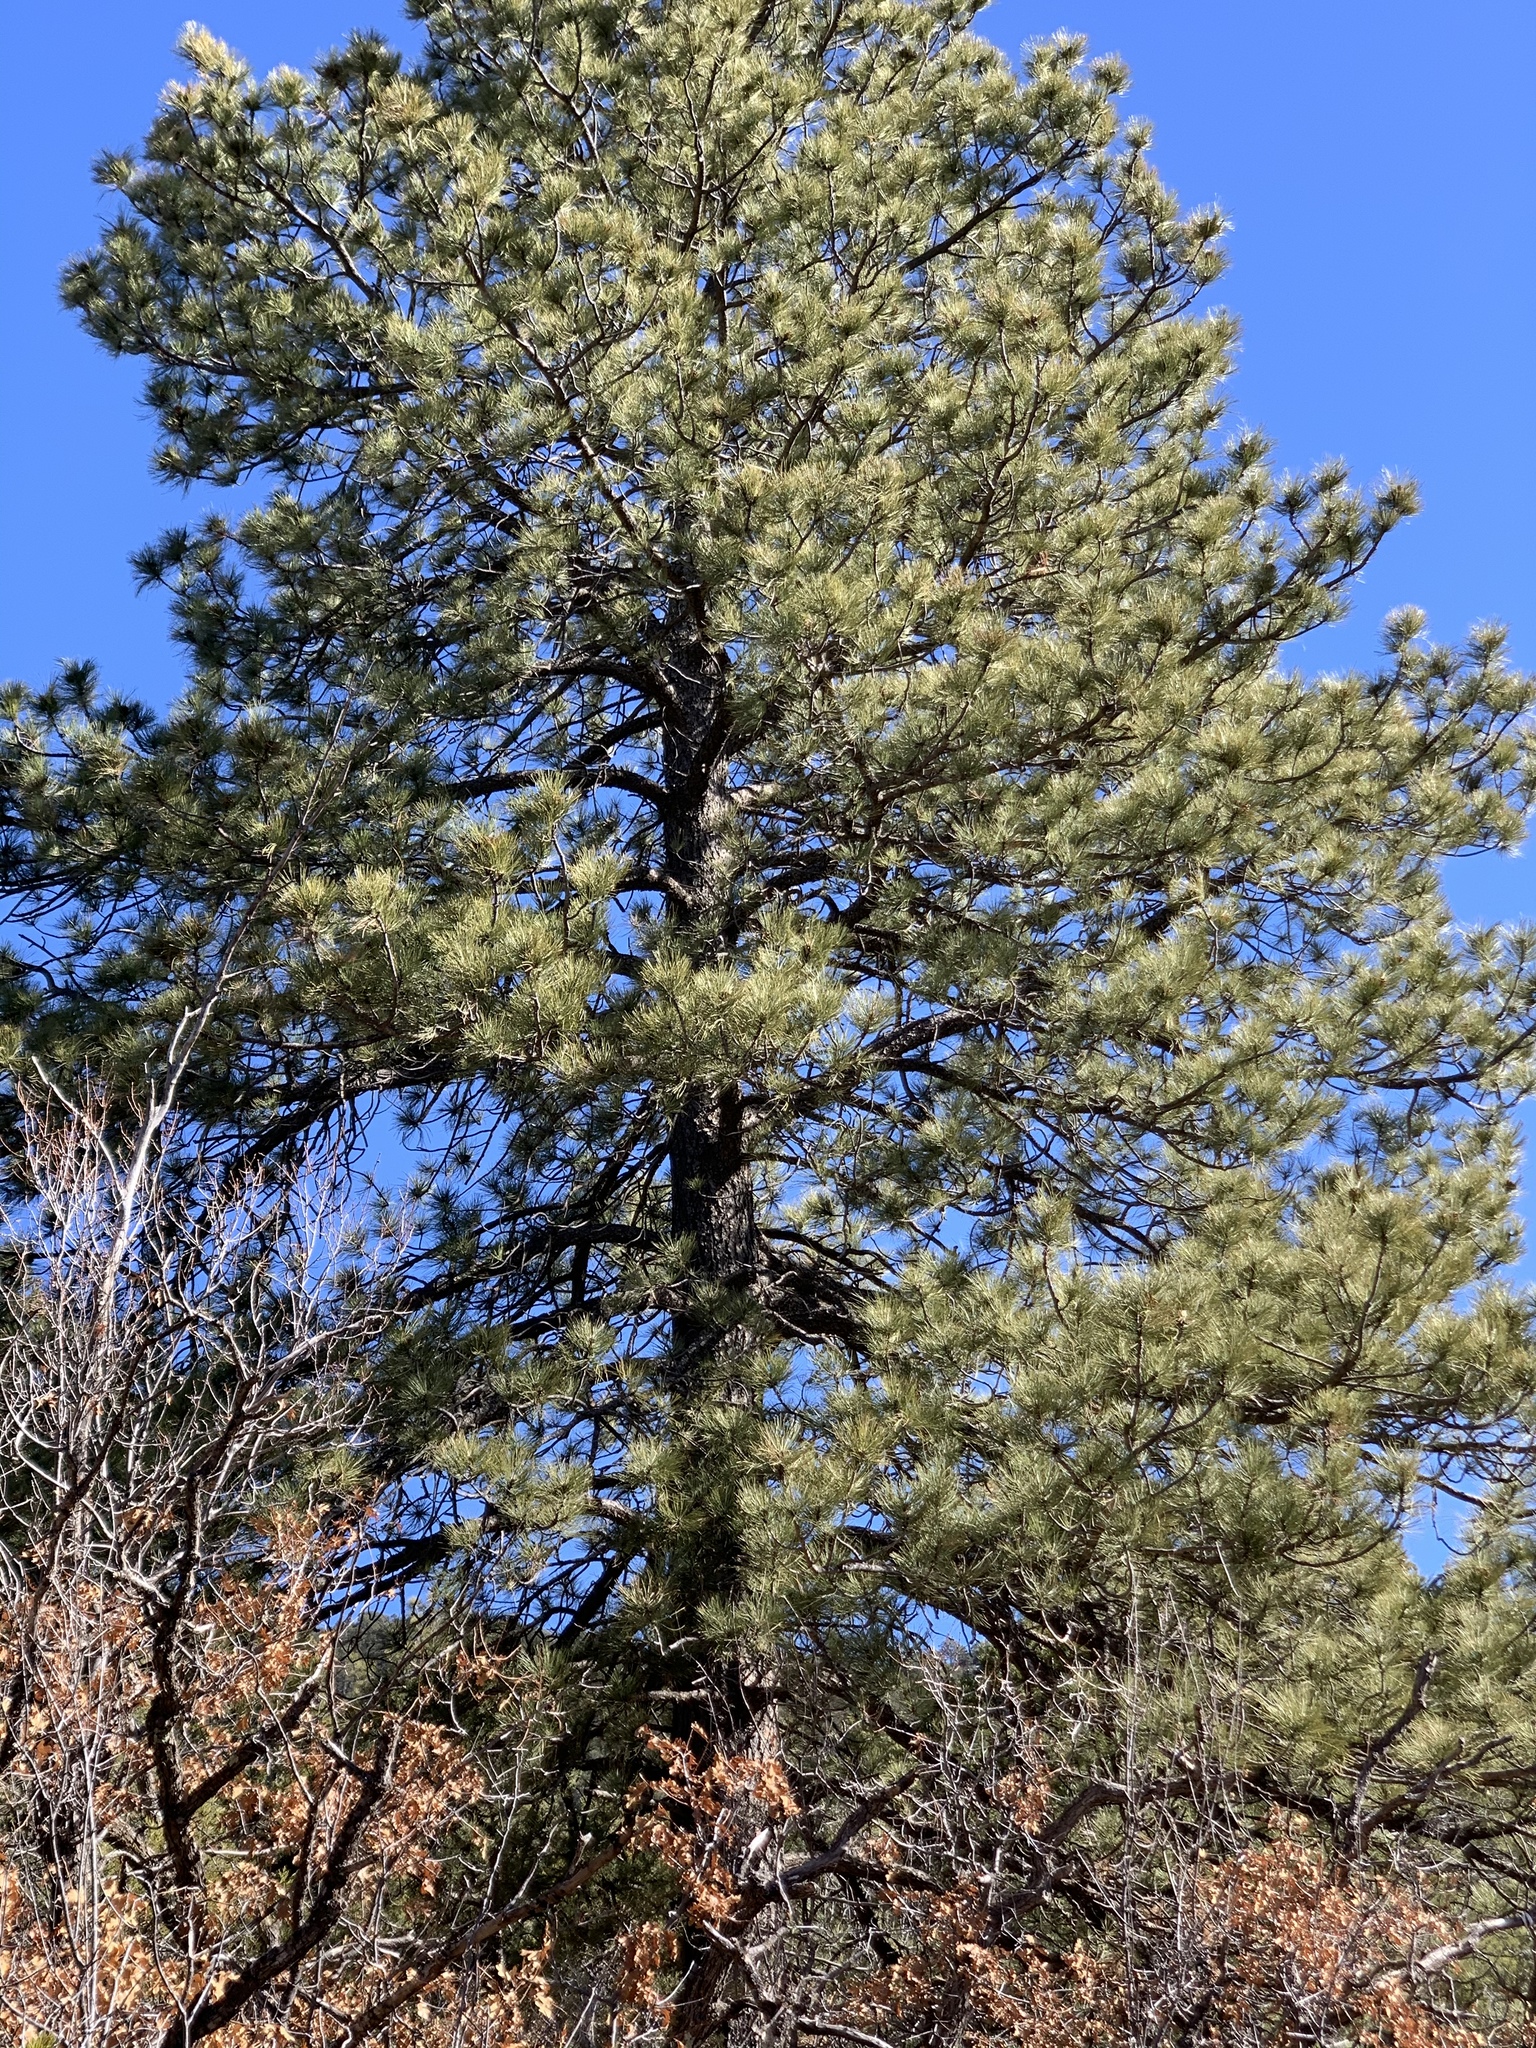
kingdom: Plantae
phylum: Tracheophyta
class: Pinopsida
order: Pinales
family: Pinaceae
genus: Pinus
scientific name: Pinus ponderosa
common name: Western yellow-pine
